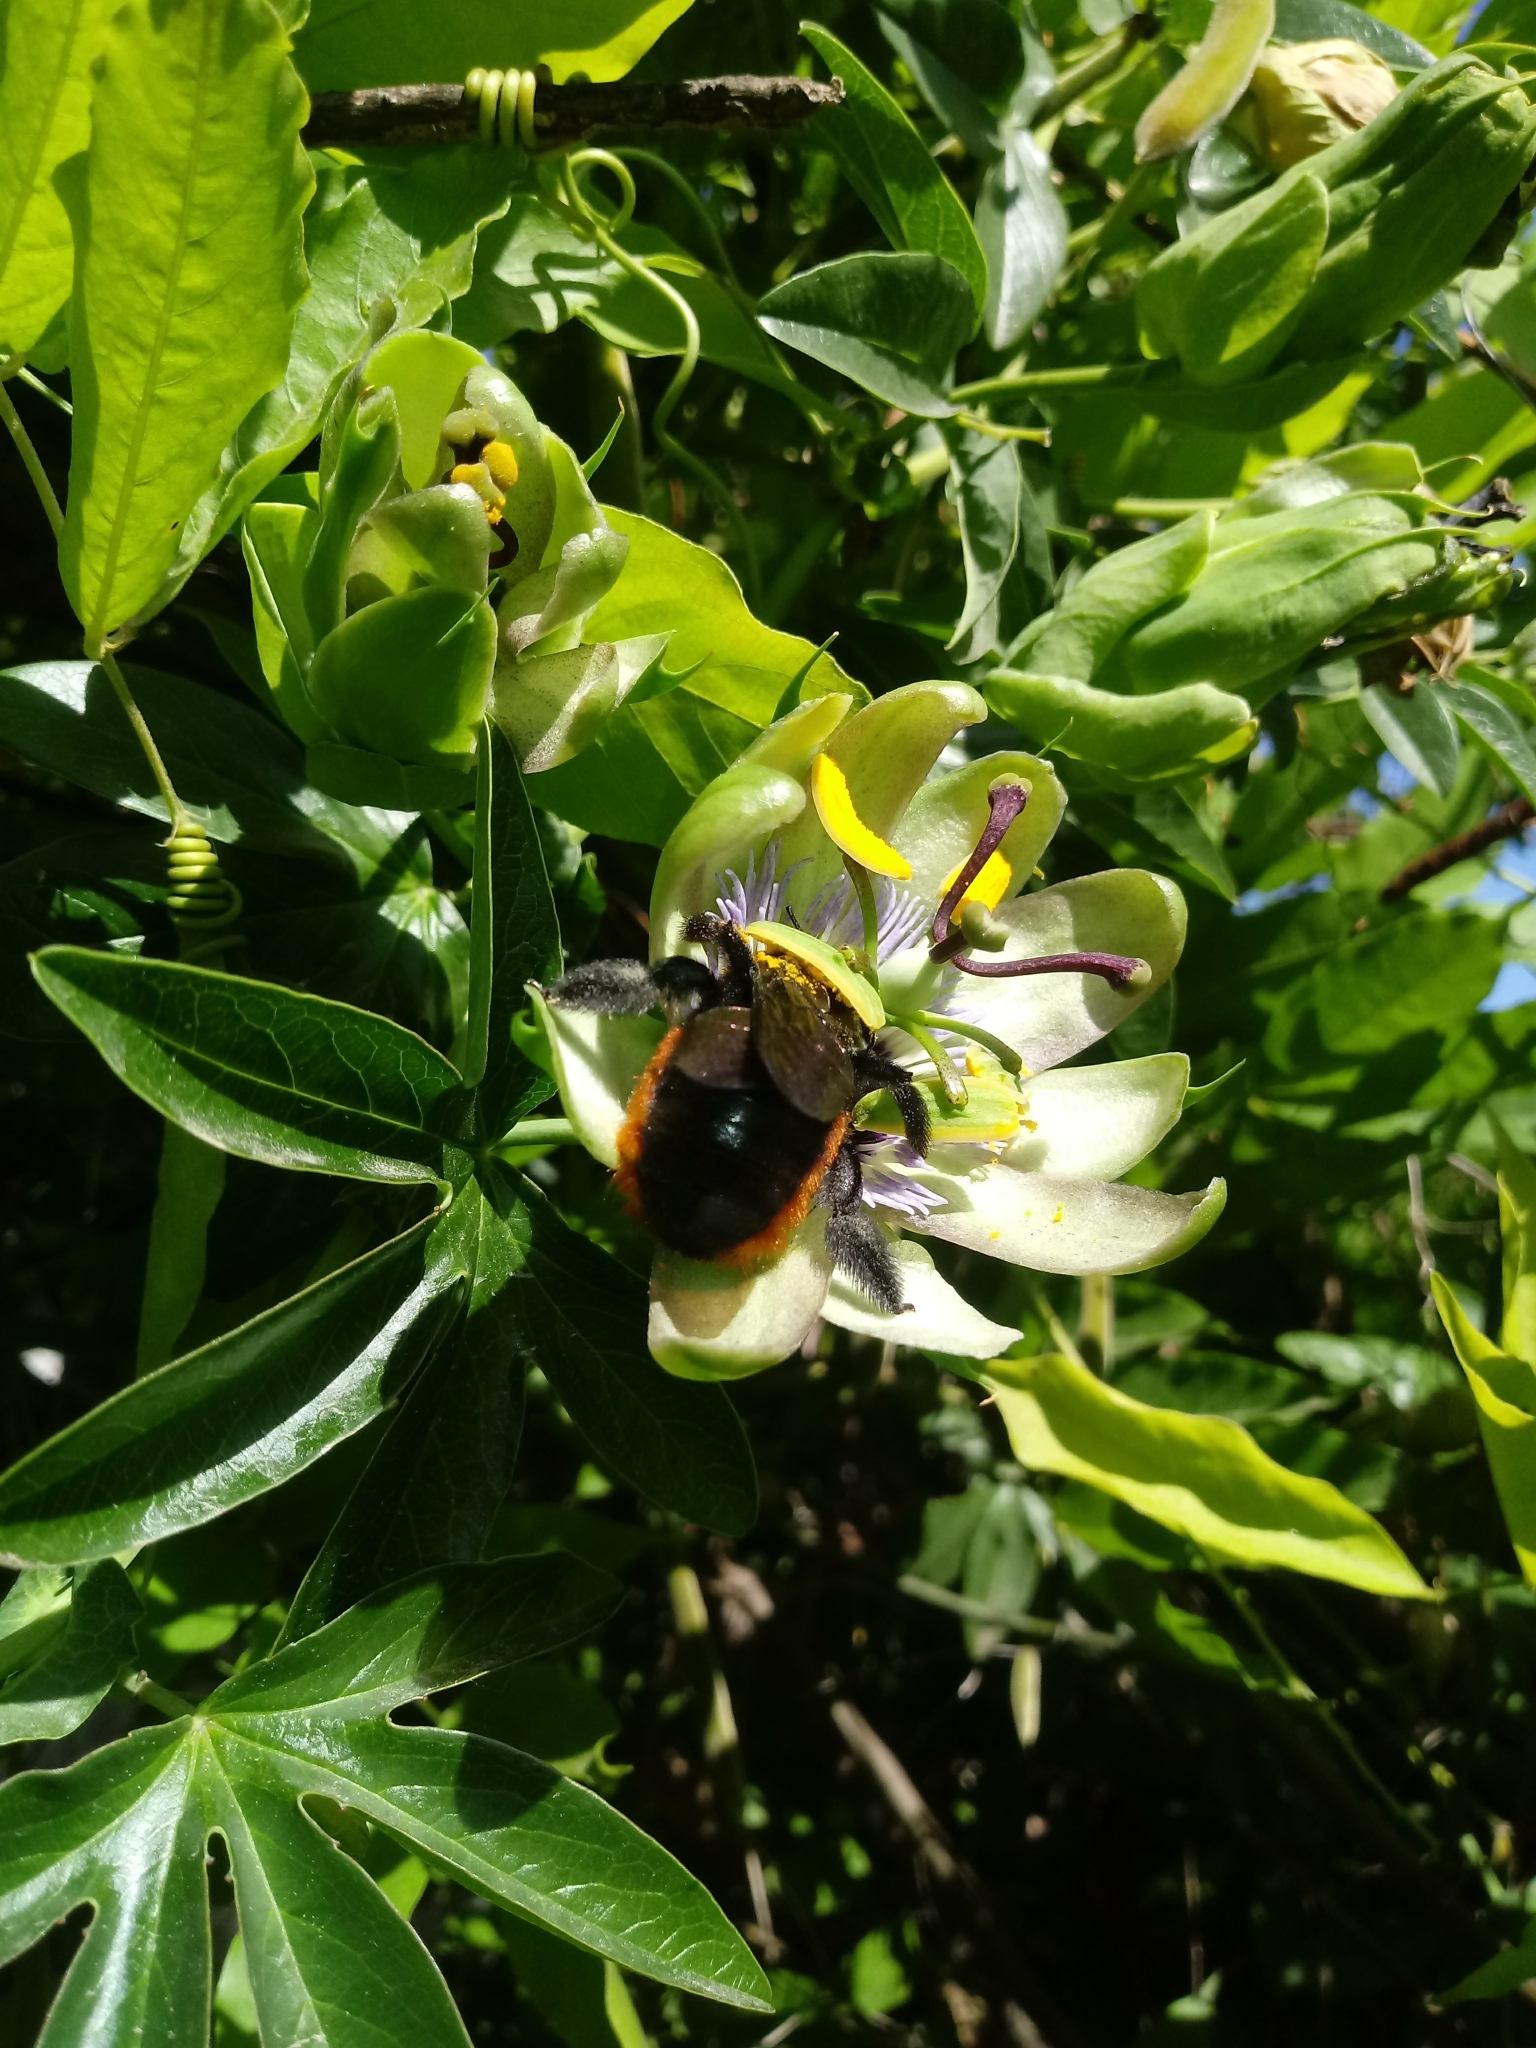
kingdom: Animalia
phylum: Arthropoda
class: Insecta
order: Hymenoptera
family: Apidae
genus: Xylocopa
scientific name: Xylocopa augusti
